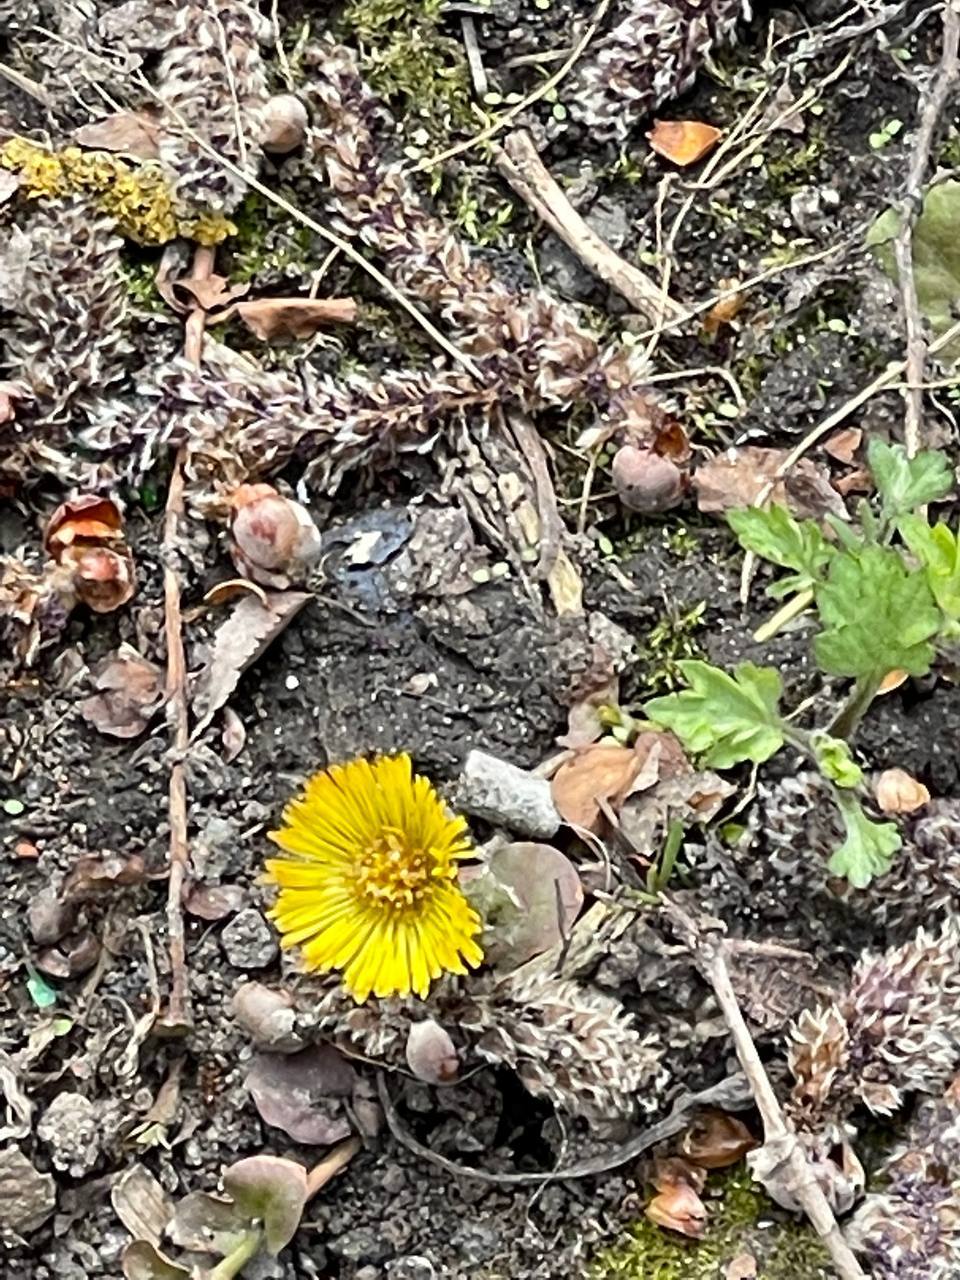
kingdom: Plantae
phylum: Tracheophyta
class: Magnoliopsida
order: Asterales
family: Asteraceae
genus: Tussilago
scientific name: Tussilago farfara
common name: Coltsfoot
